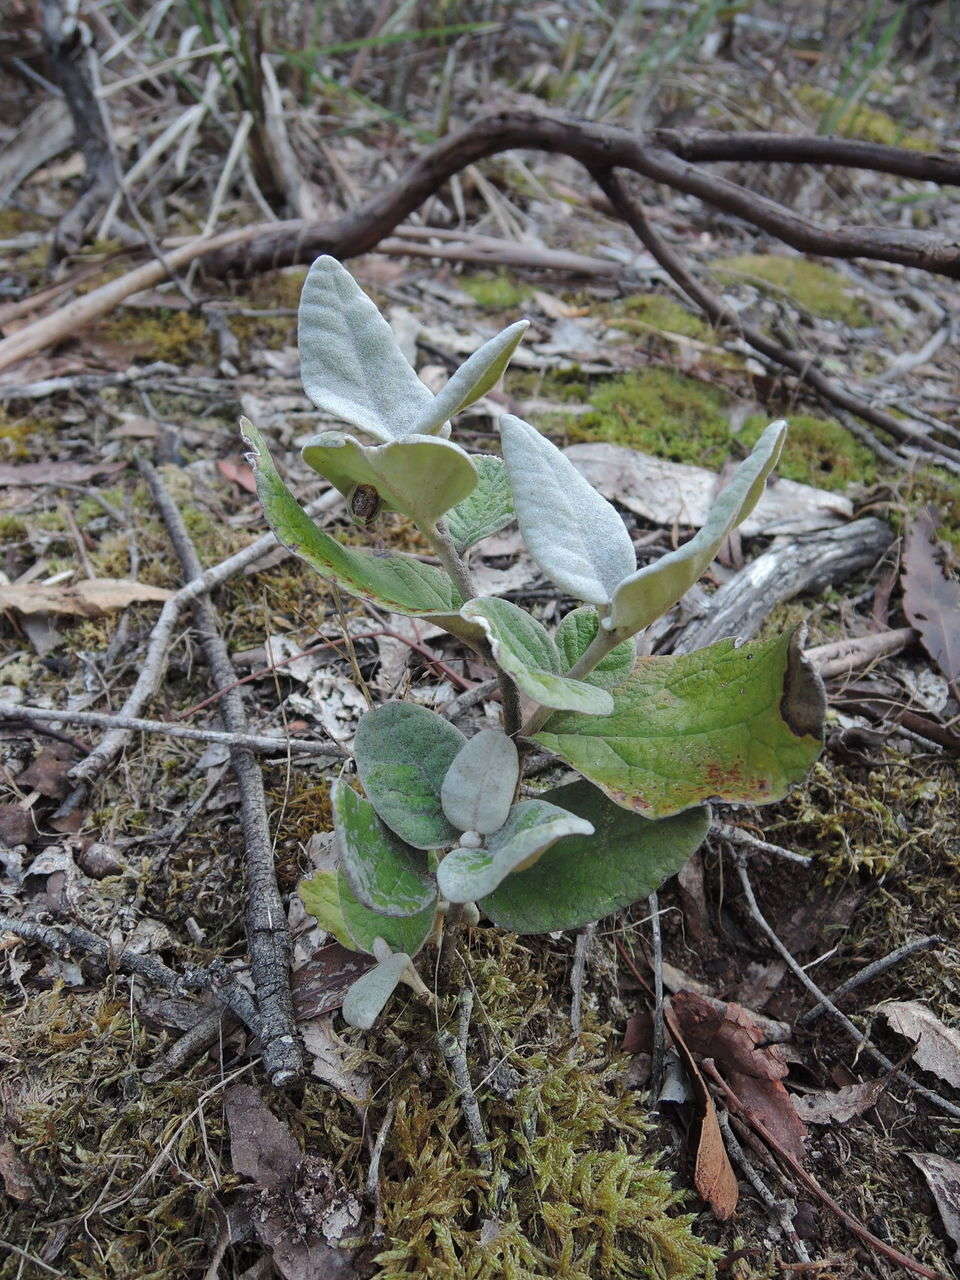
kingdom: Plantae
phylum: Tracheophyta
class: Magnoliopsida
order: Asterales
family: Asteraceae
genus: Olearia
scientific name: Olearia pannosa
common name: Velvet daisybush
